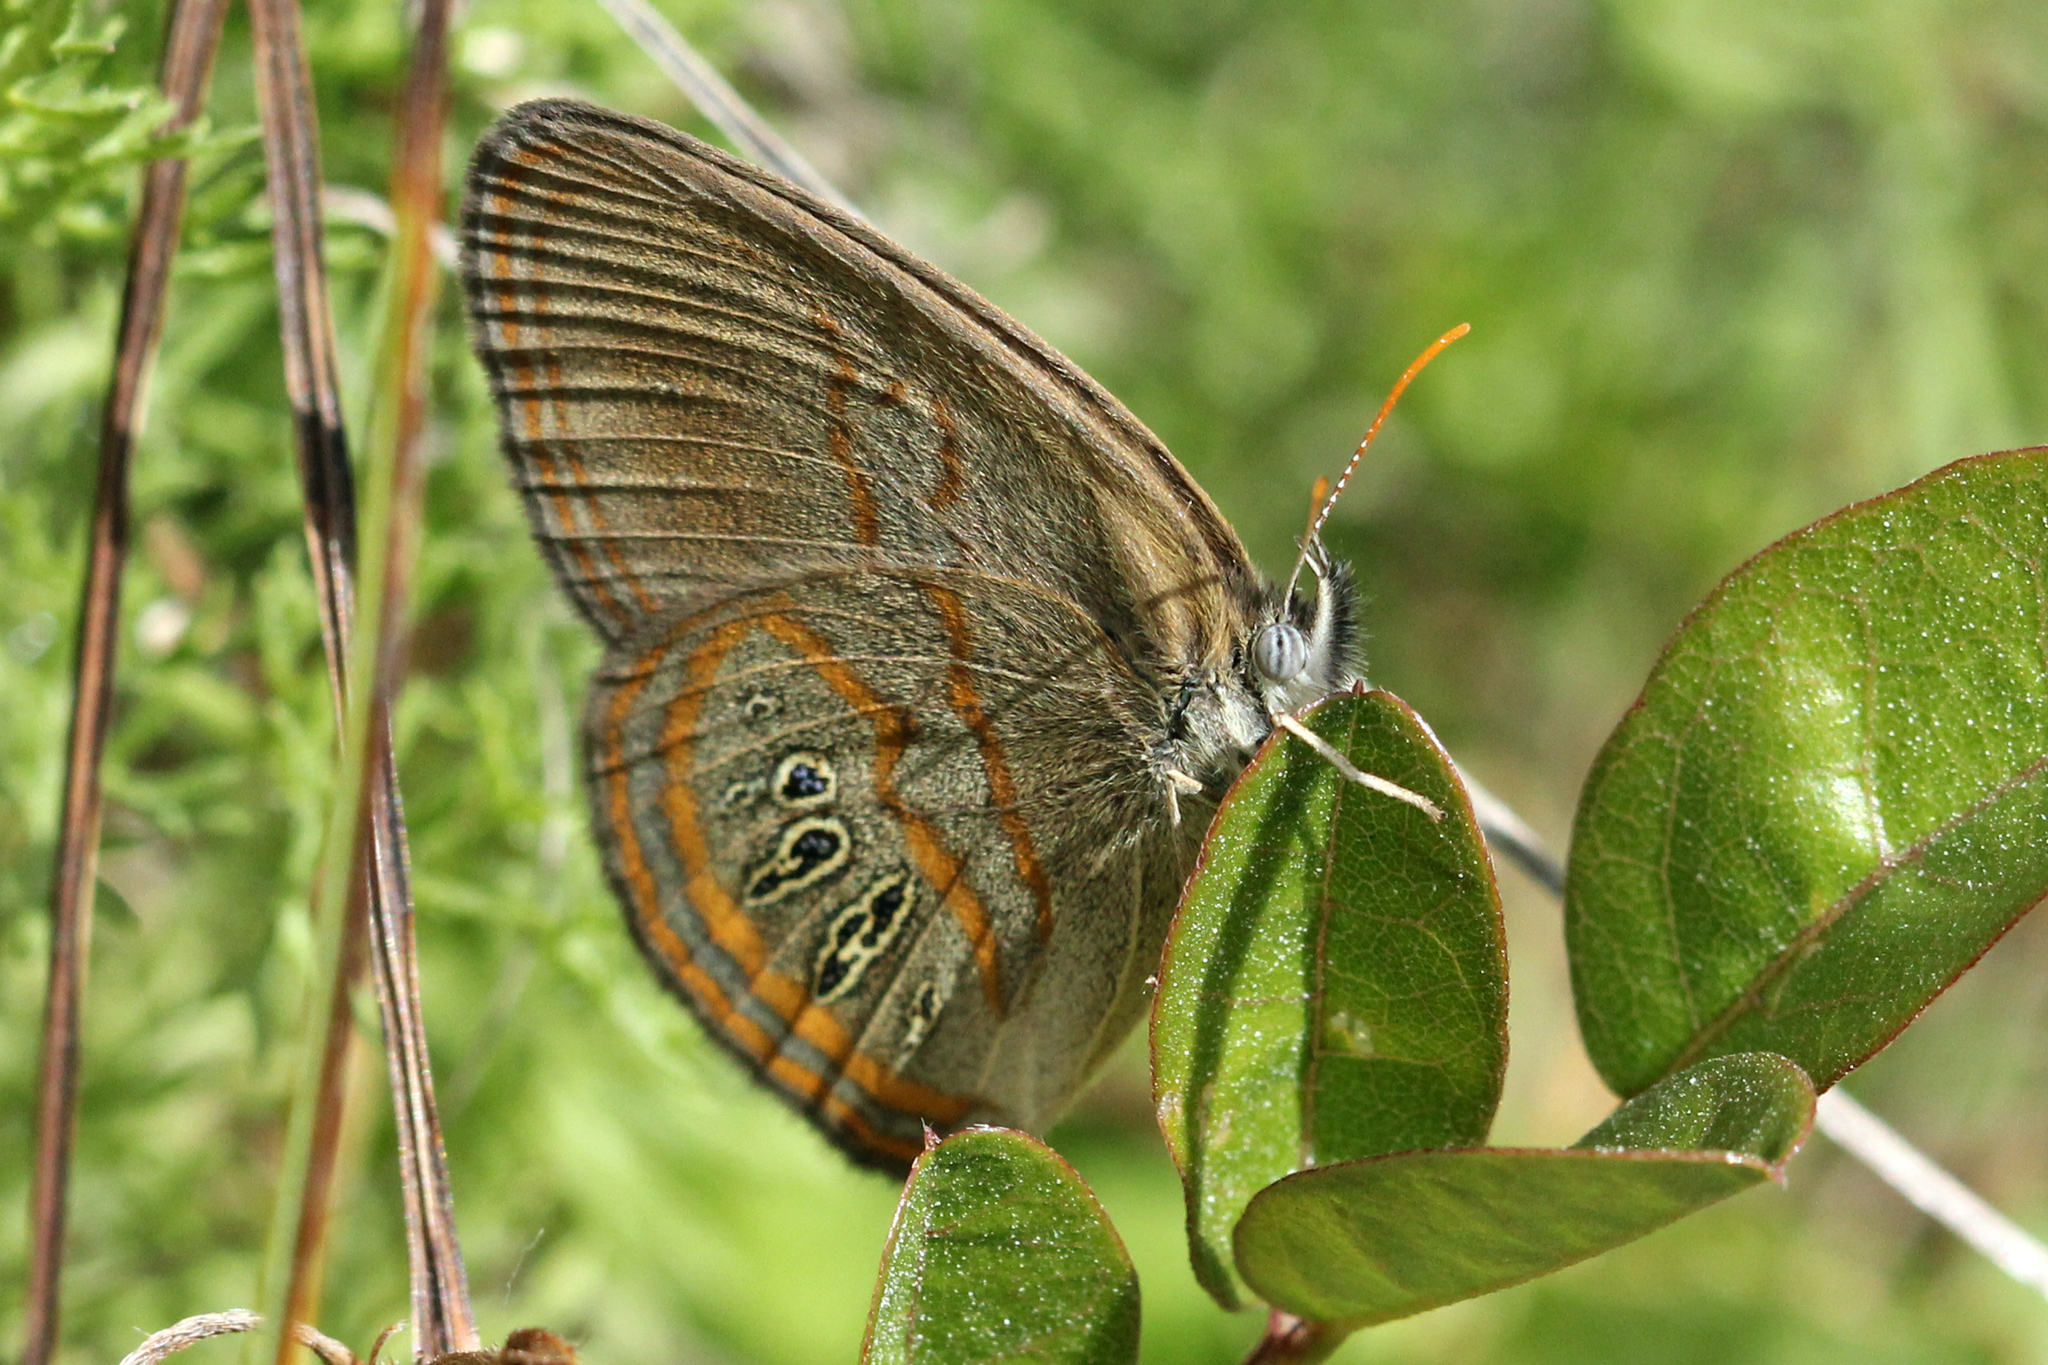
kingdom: Animalia
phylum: Arthropoda
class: Insecta
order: Lepidoptera
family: Nymphalidae
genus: Euptychia
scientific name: Euptychia phocion
